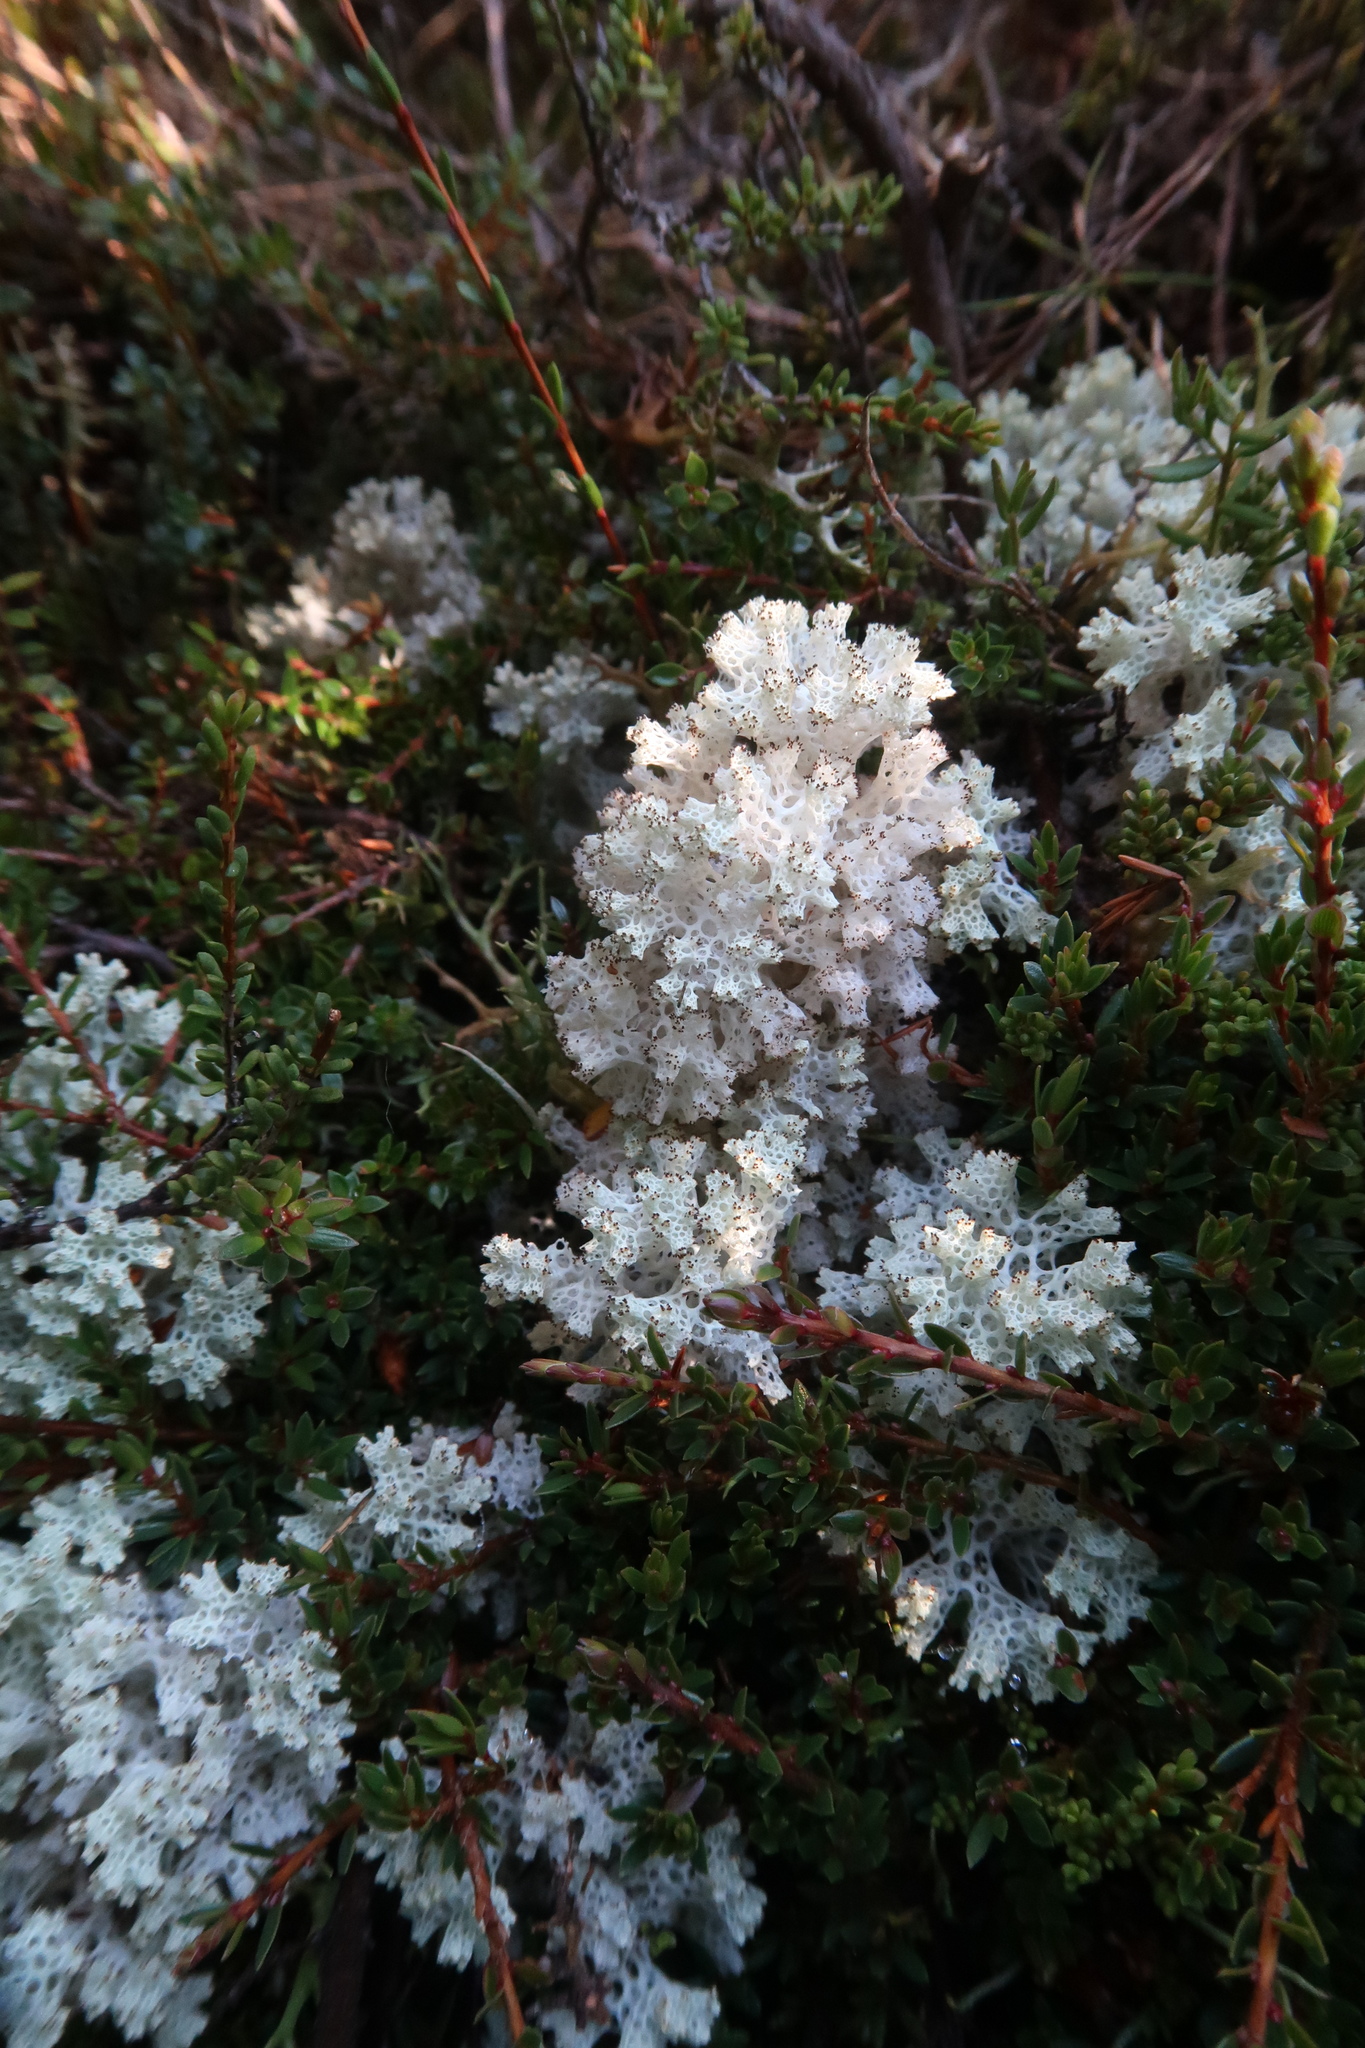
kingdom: Fungi
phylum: Ascomycota
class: Lecanoromycetes
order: Lecanorales
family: Cladoniaceae
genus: Pulchrocladia
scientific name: Pulchrocladia retipora
